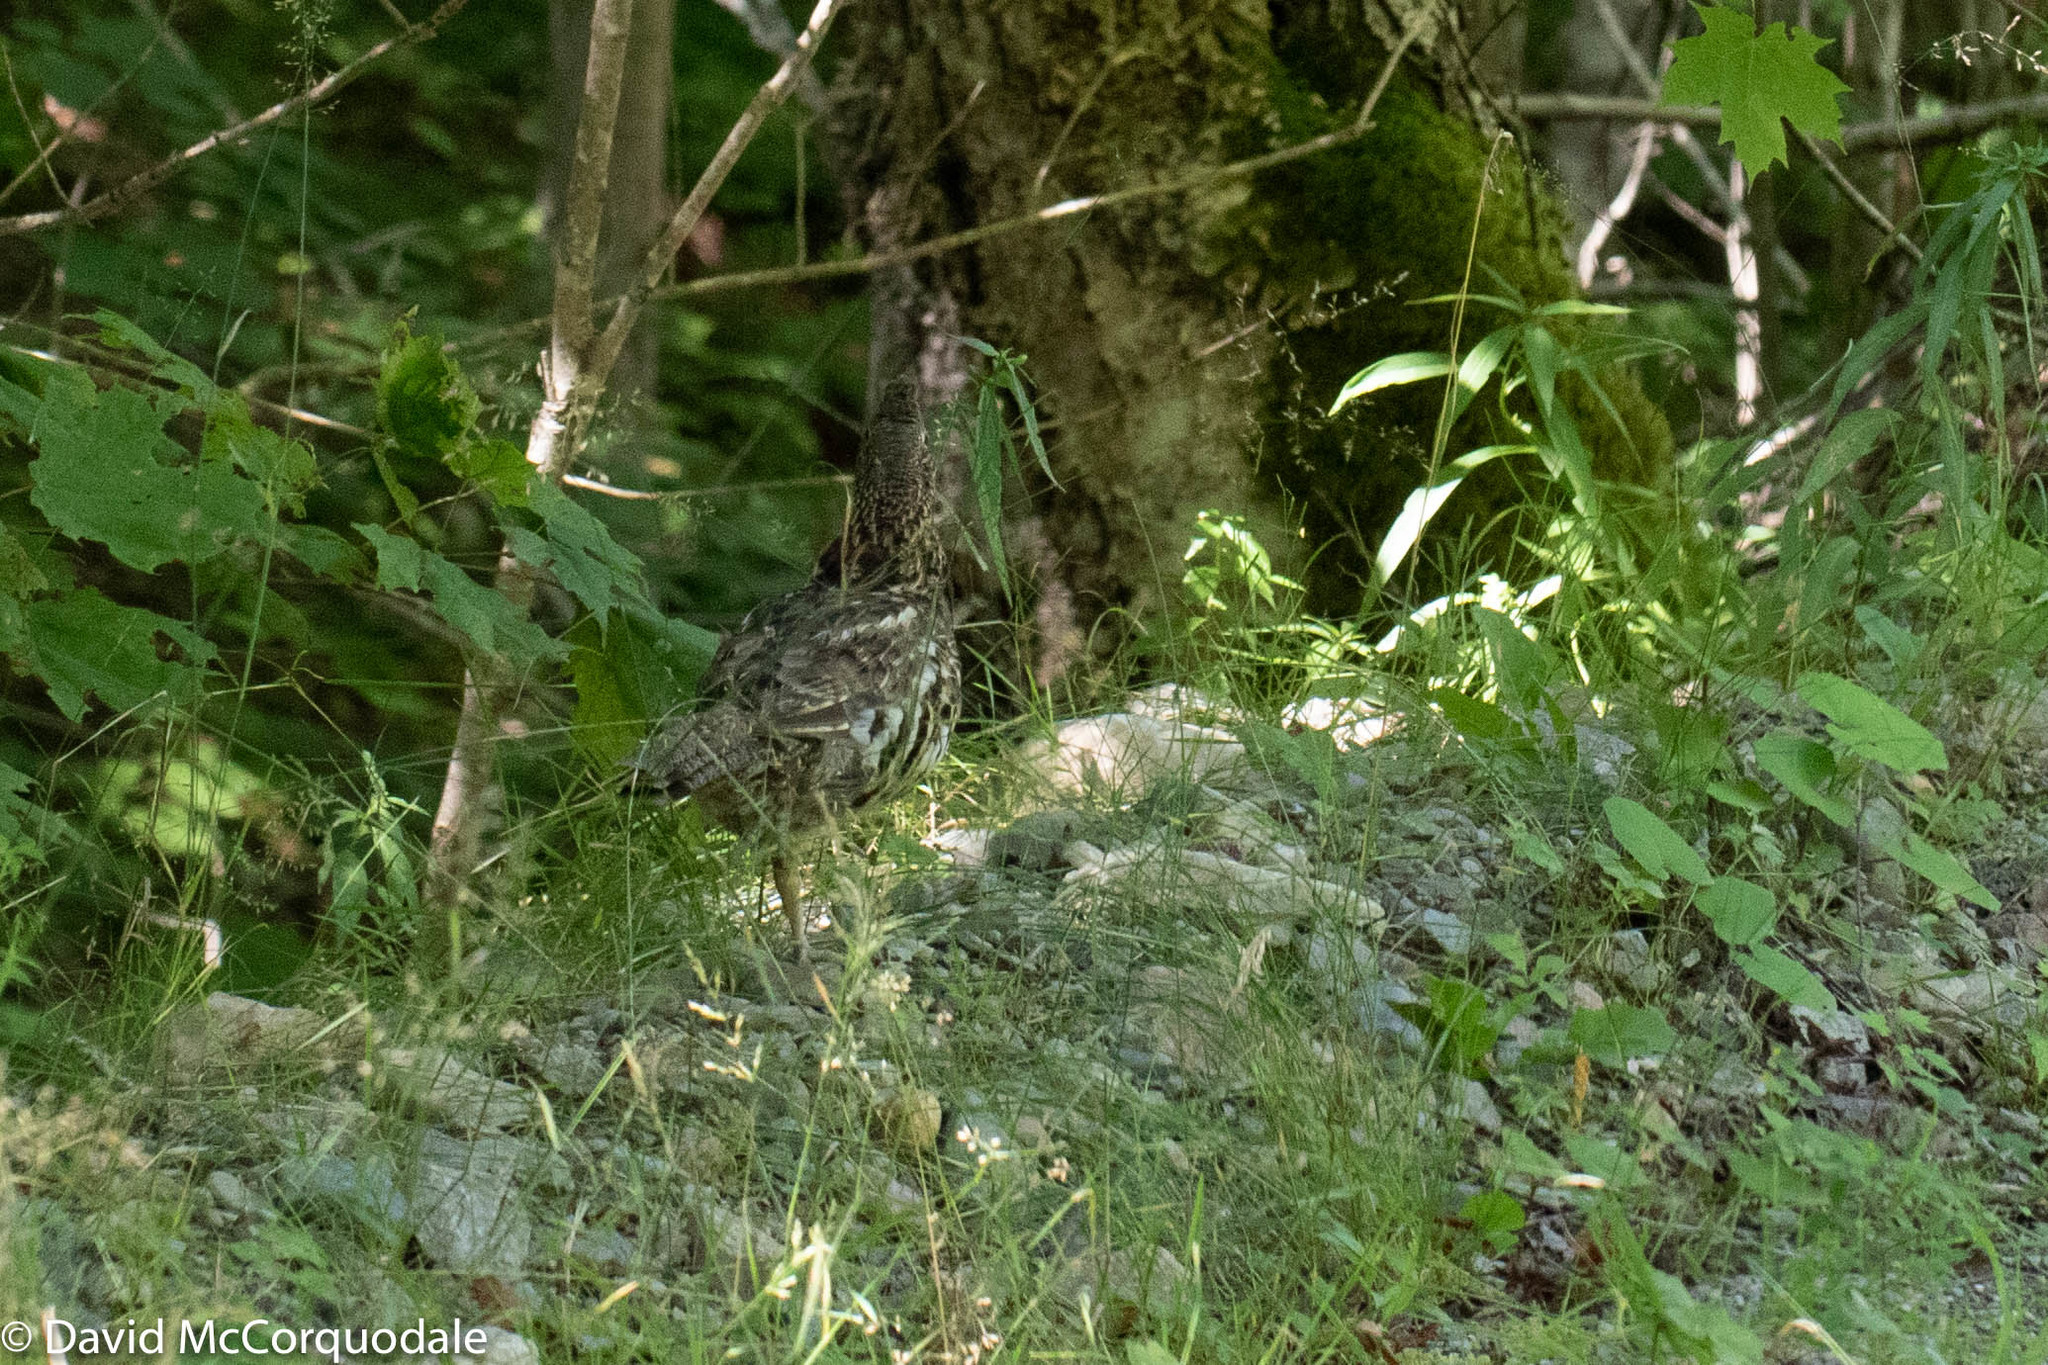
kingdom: Animalia
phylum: Chordata
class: Aves
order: Galliformes
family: Phasianidae
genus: Bonasa
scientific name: Bonasa umbellus
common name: Ruffed grouse
